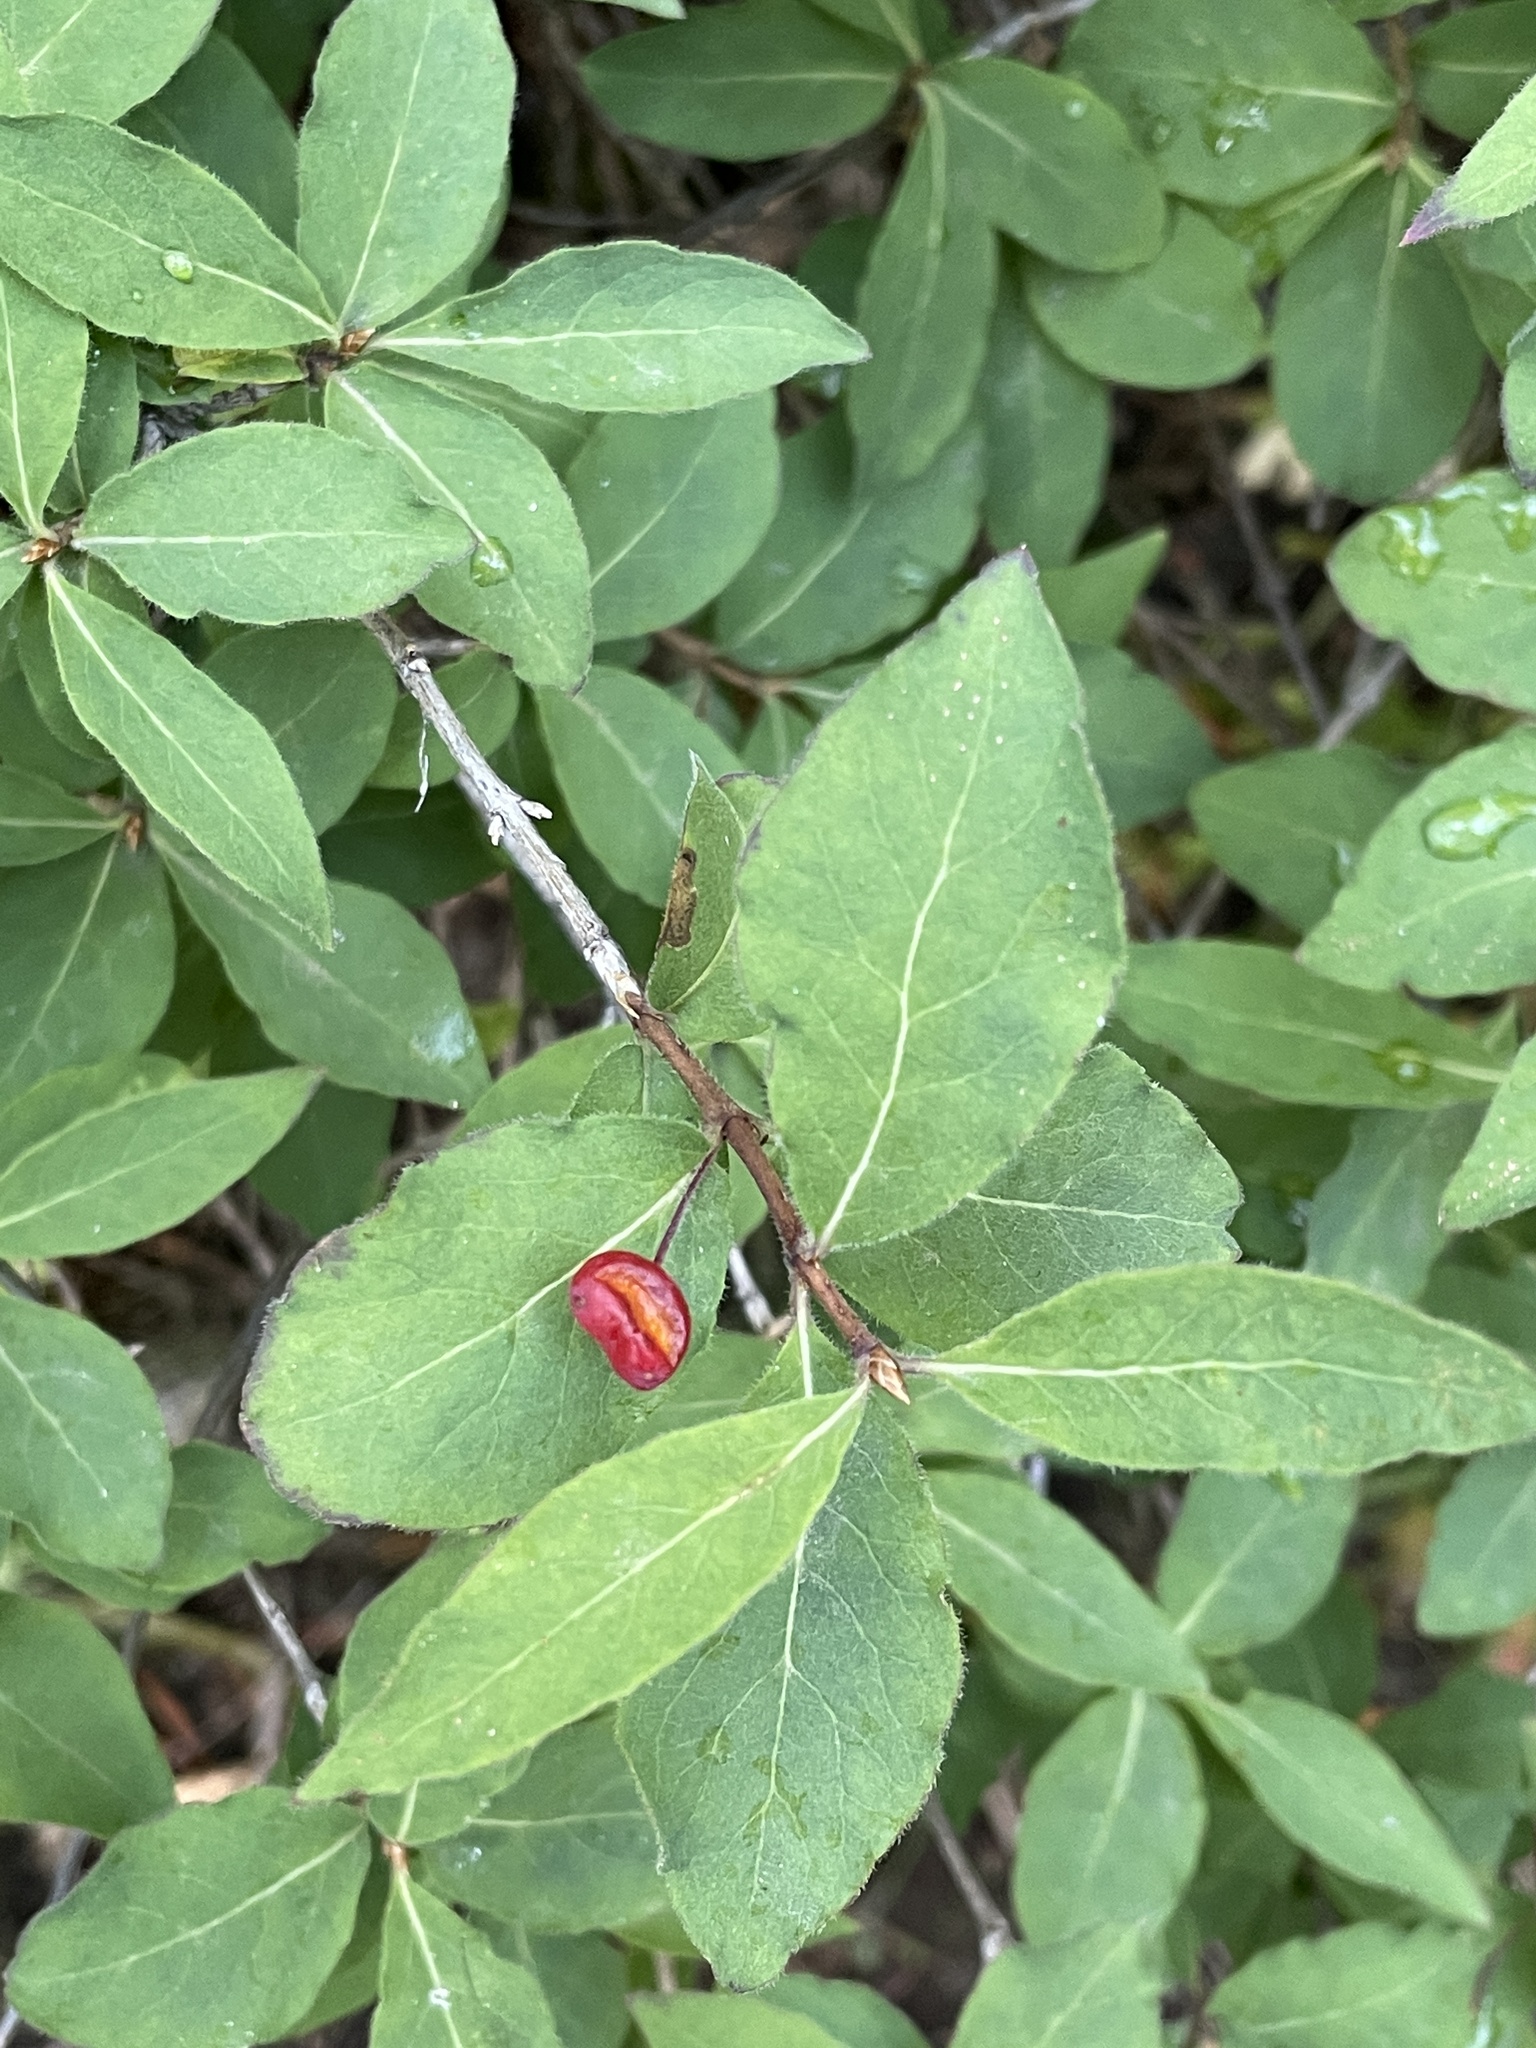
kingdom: Plantae
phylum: Tracheophyta
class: Magnoliopsida
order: Dipsacales
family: Caprifoliaceae
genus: Lonicera
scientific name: Lonicera conjugialis
